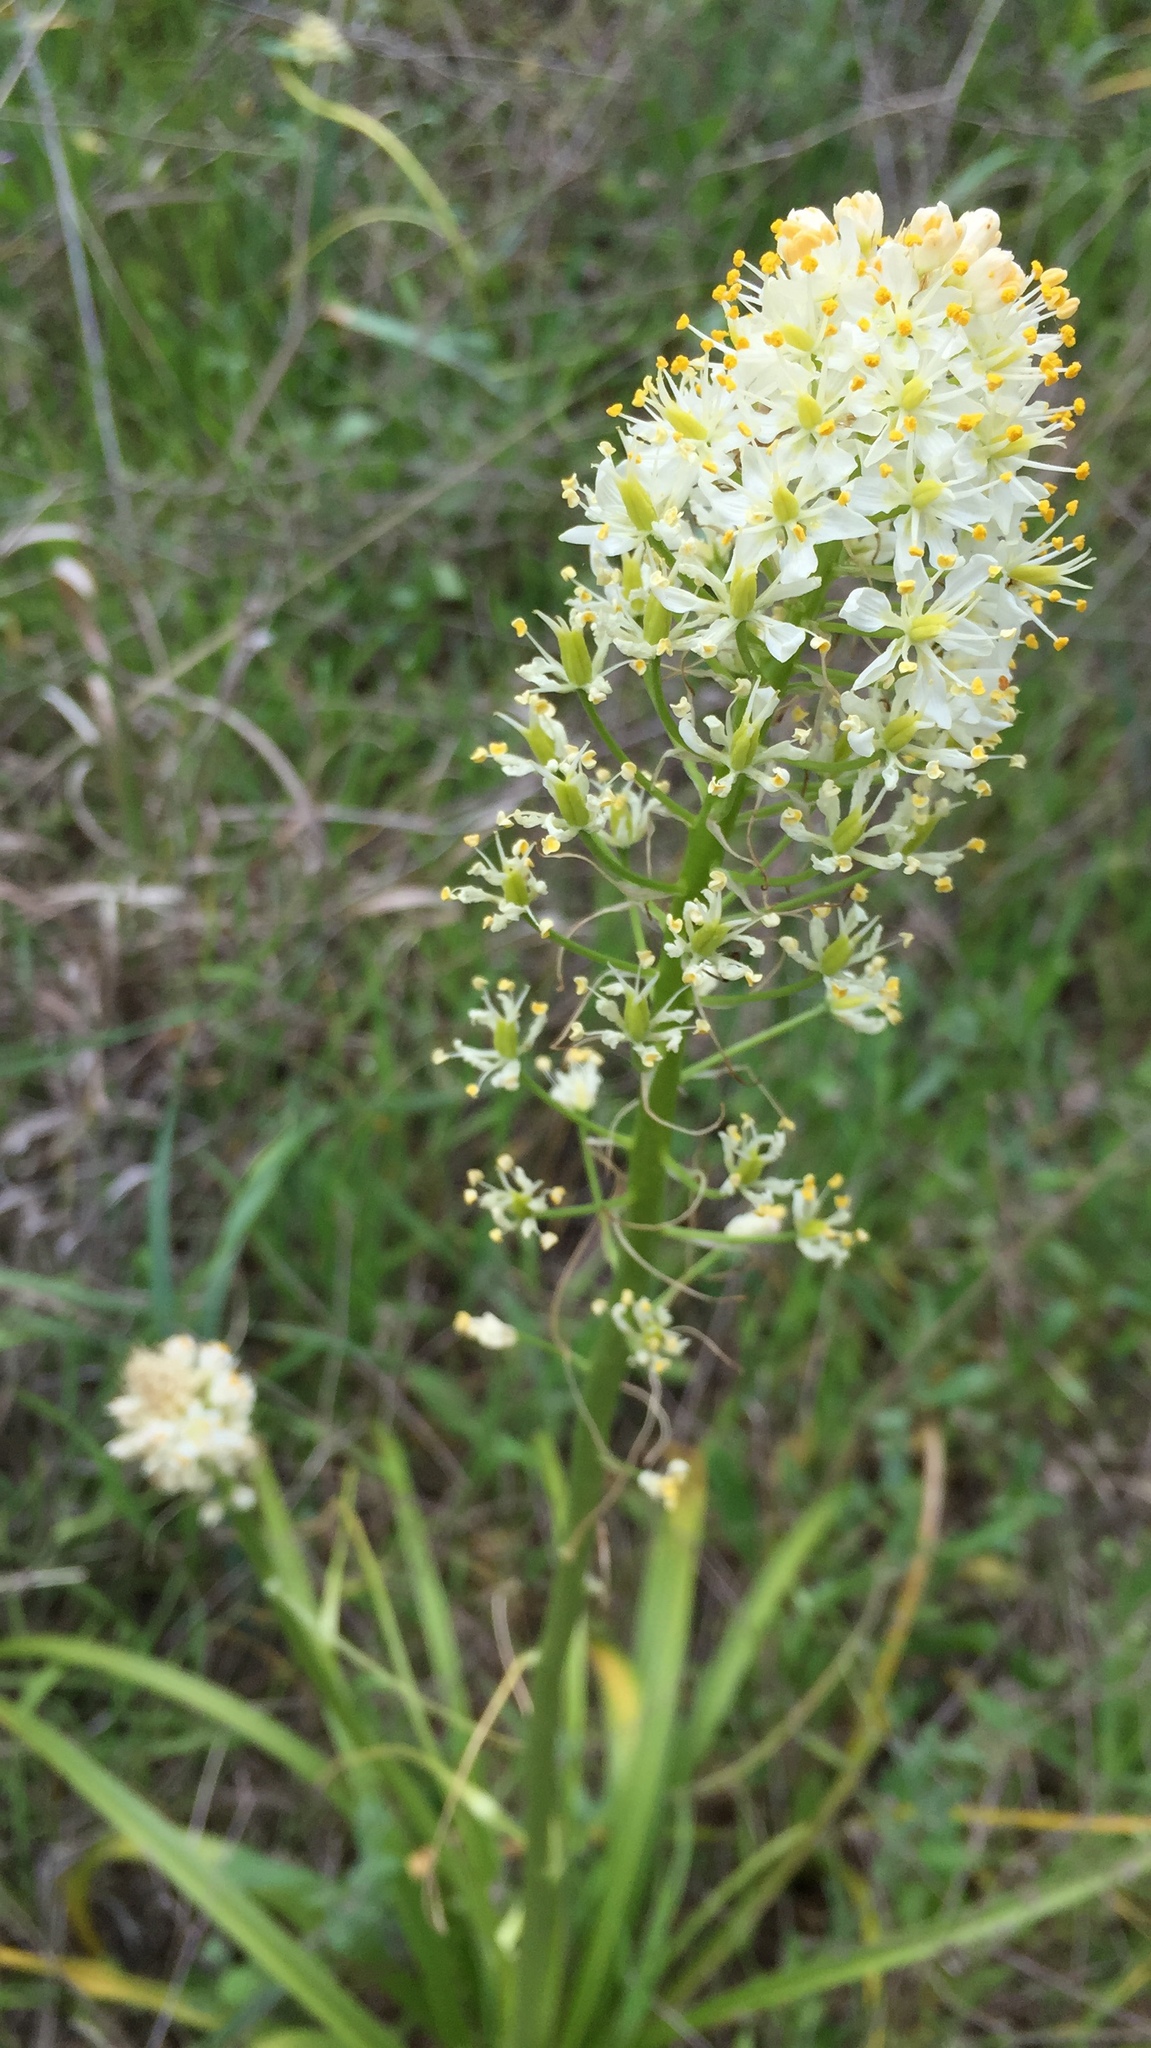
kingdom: Plantae
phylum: Tracheophyta
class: Liliopsida
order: Liliales
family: Melanthiaceae
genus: Toxicoscordion
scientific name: Toxicoscordion nuttallii
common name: Poison sego
